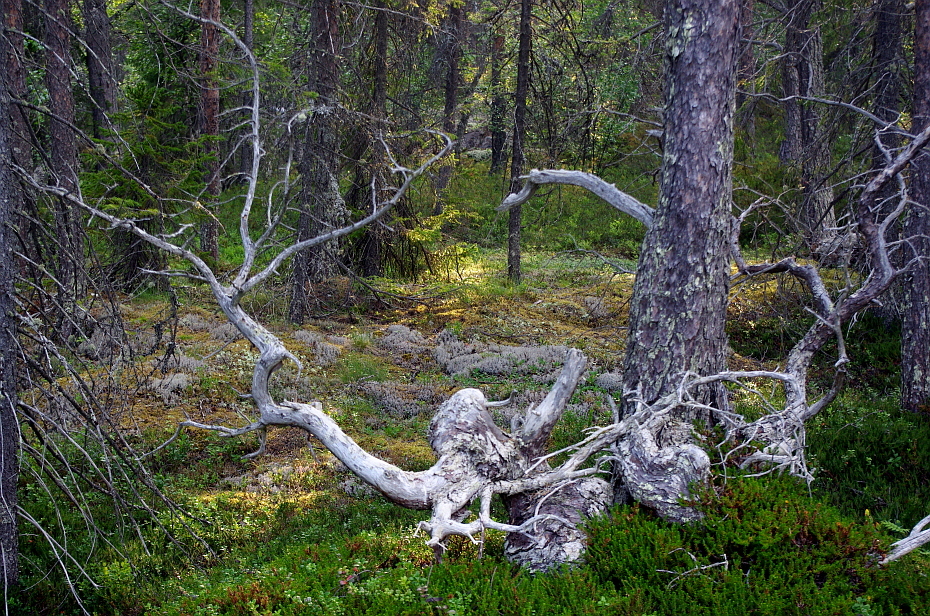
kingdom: Plantae
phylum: Tracheophyta
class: Pinopsida
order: Pinales
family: Pinaceae
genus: Pinus
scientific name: Pinus sylvestris
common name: Scots pine
